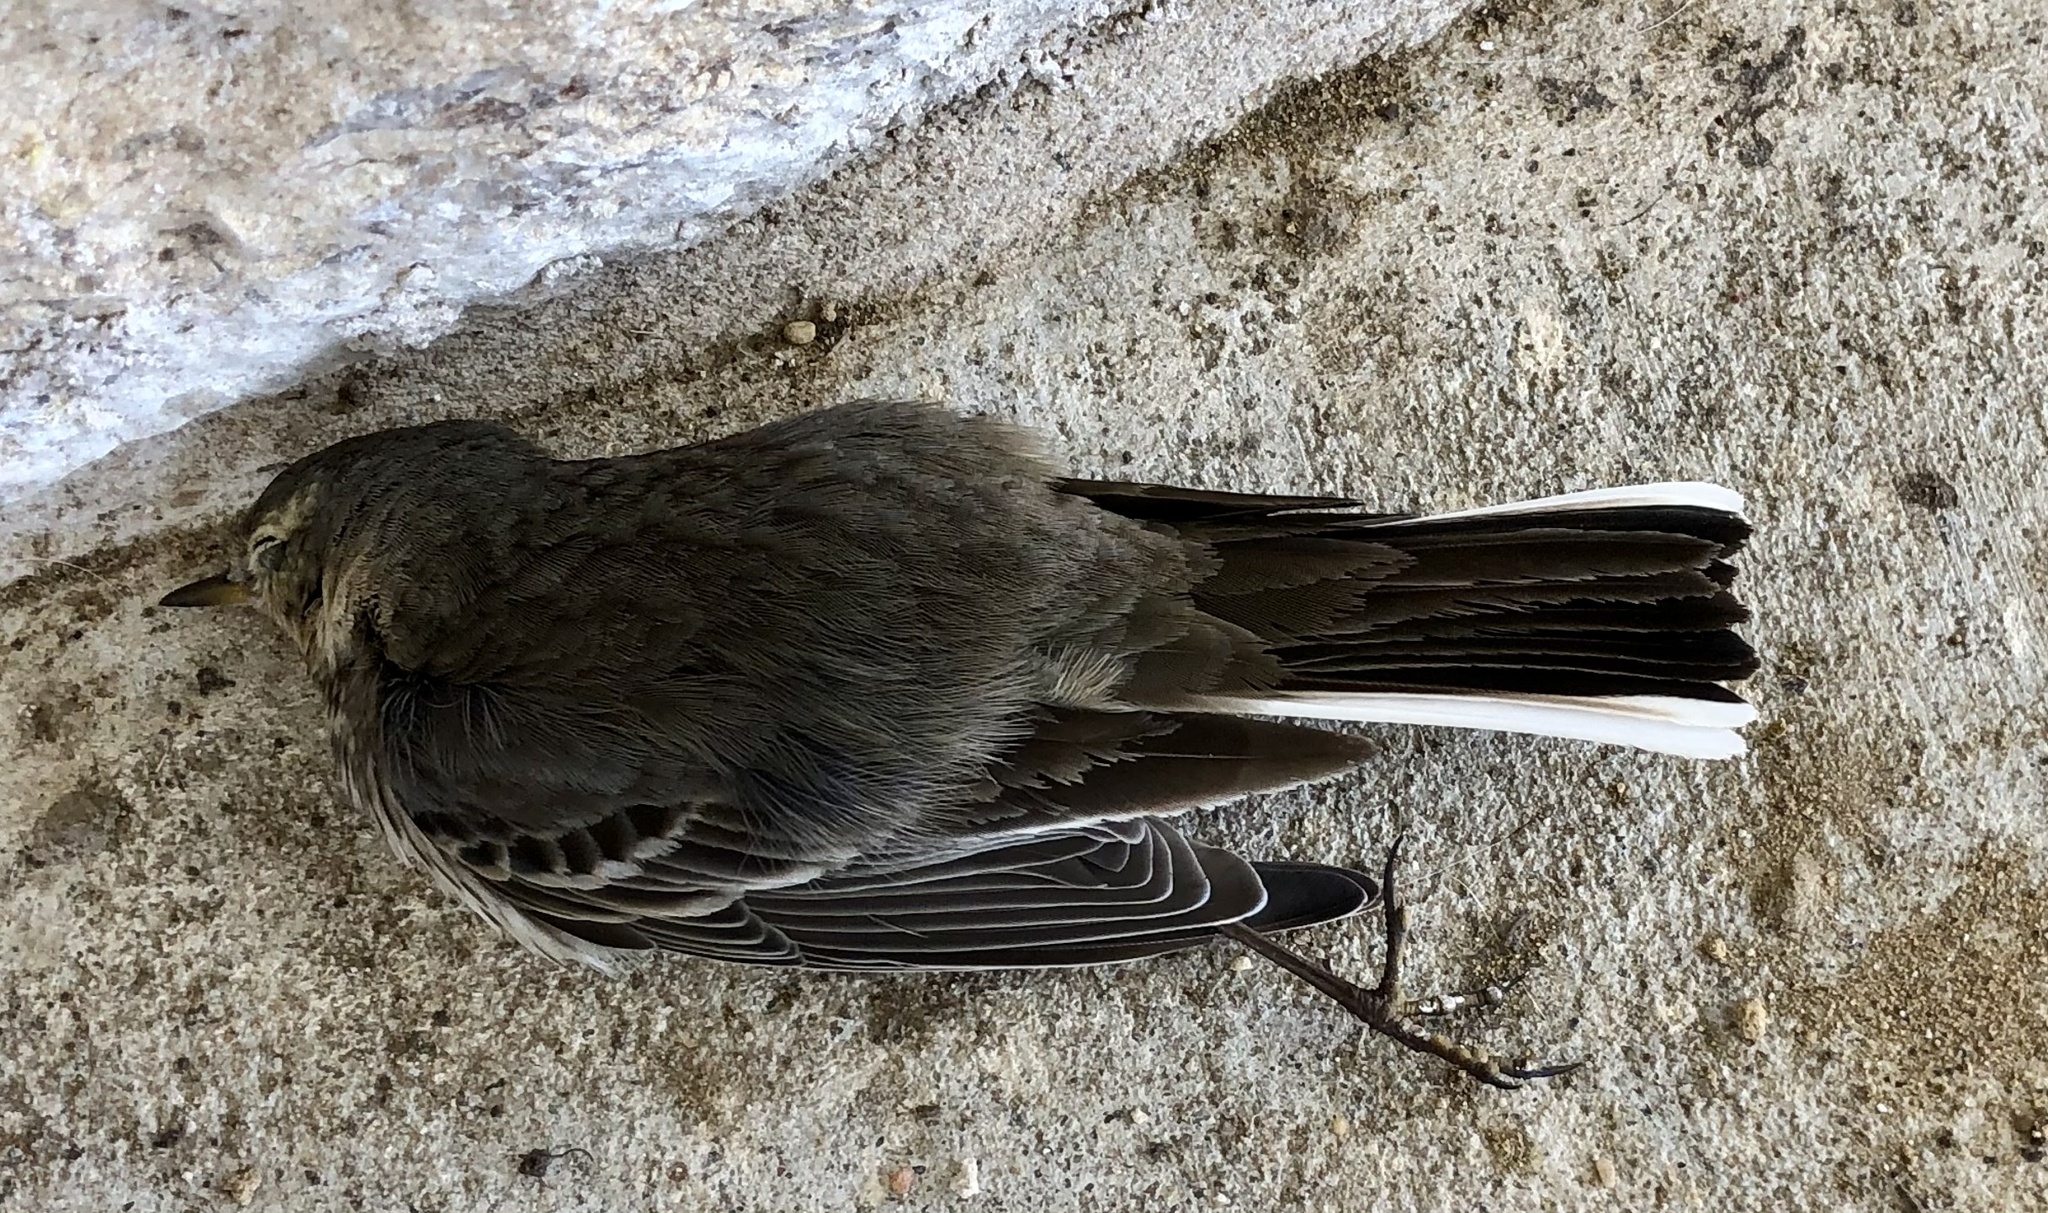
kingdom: Animalia
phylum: Chordata
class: Aves
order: Passeriformes
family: Motacillidae
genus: Anthus
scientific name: Anthus rubescens
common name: Buff-bellied pipit
